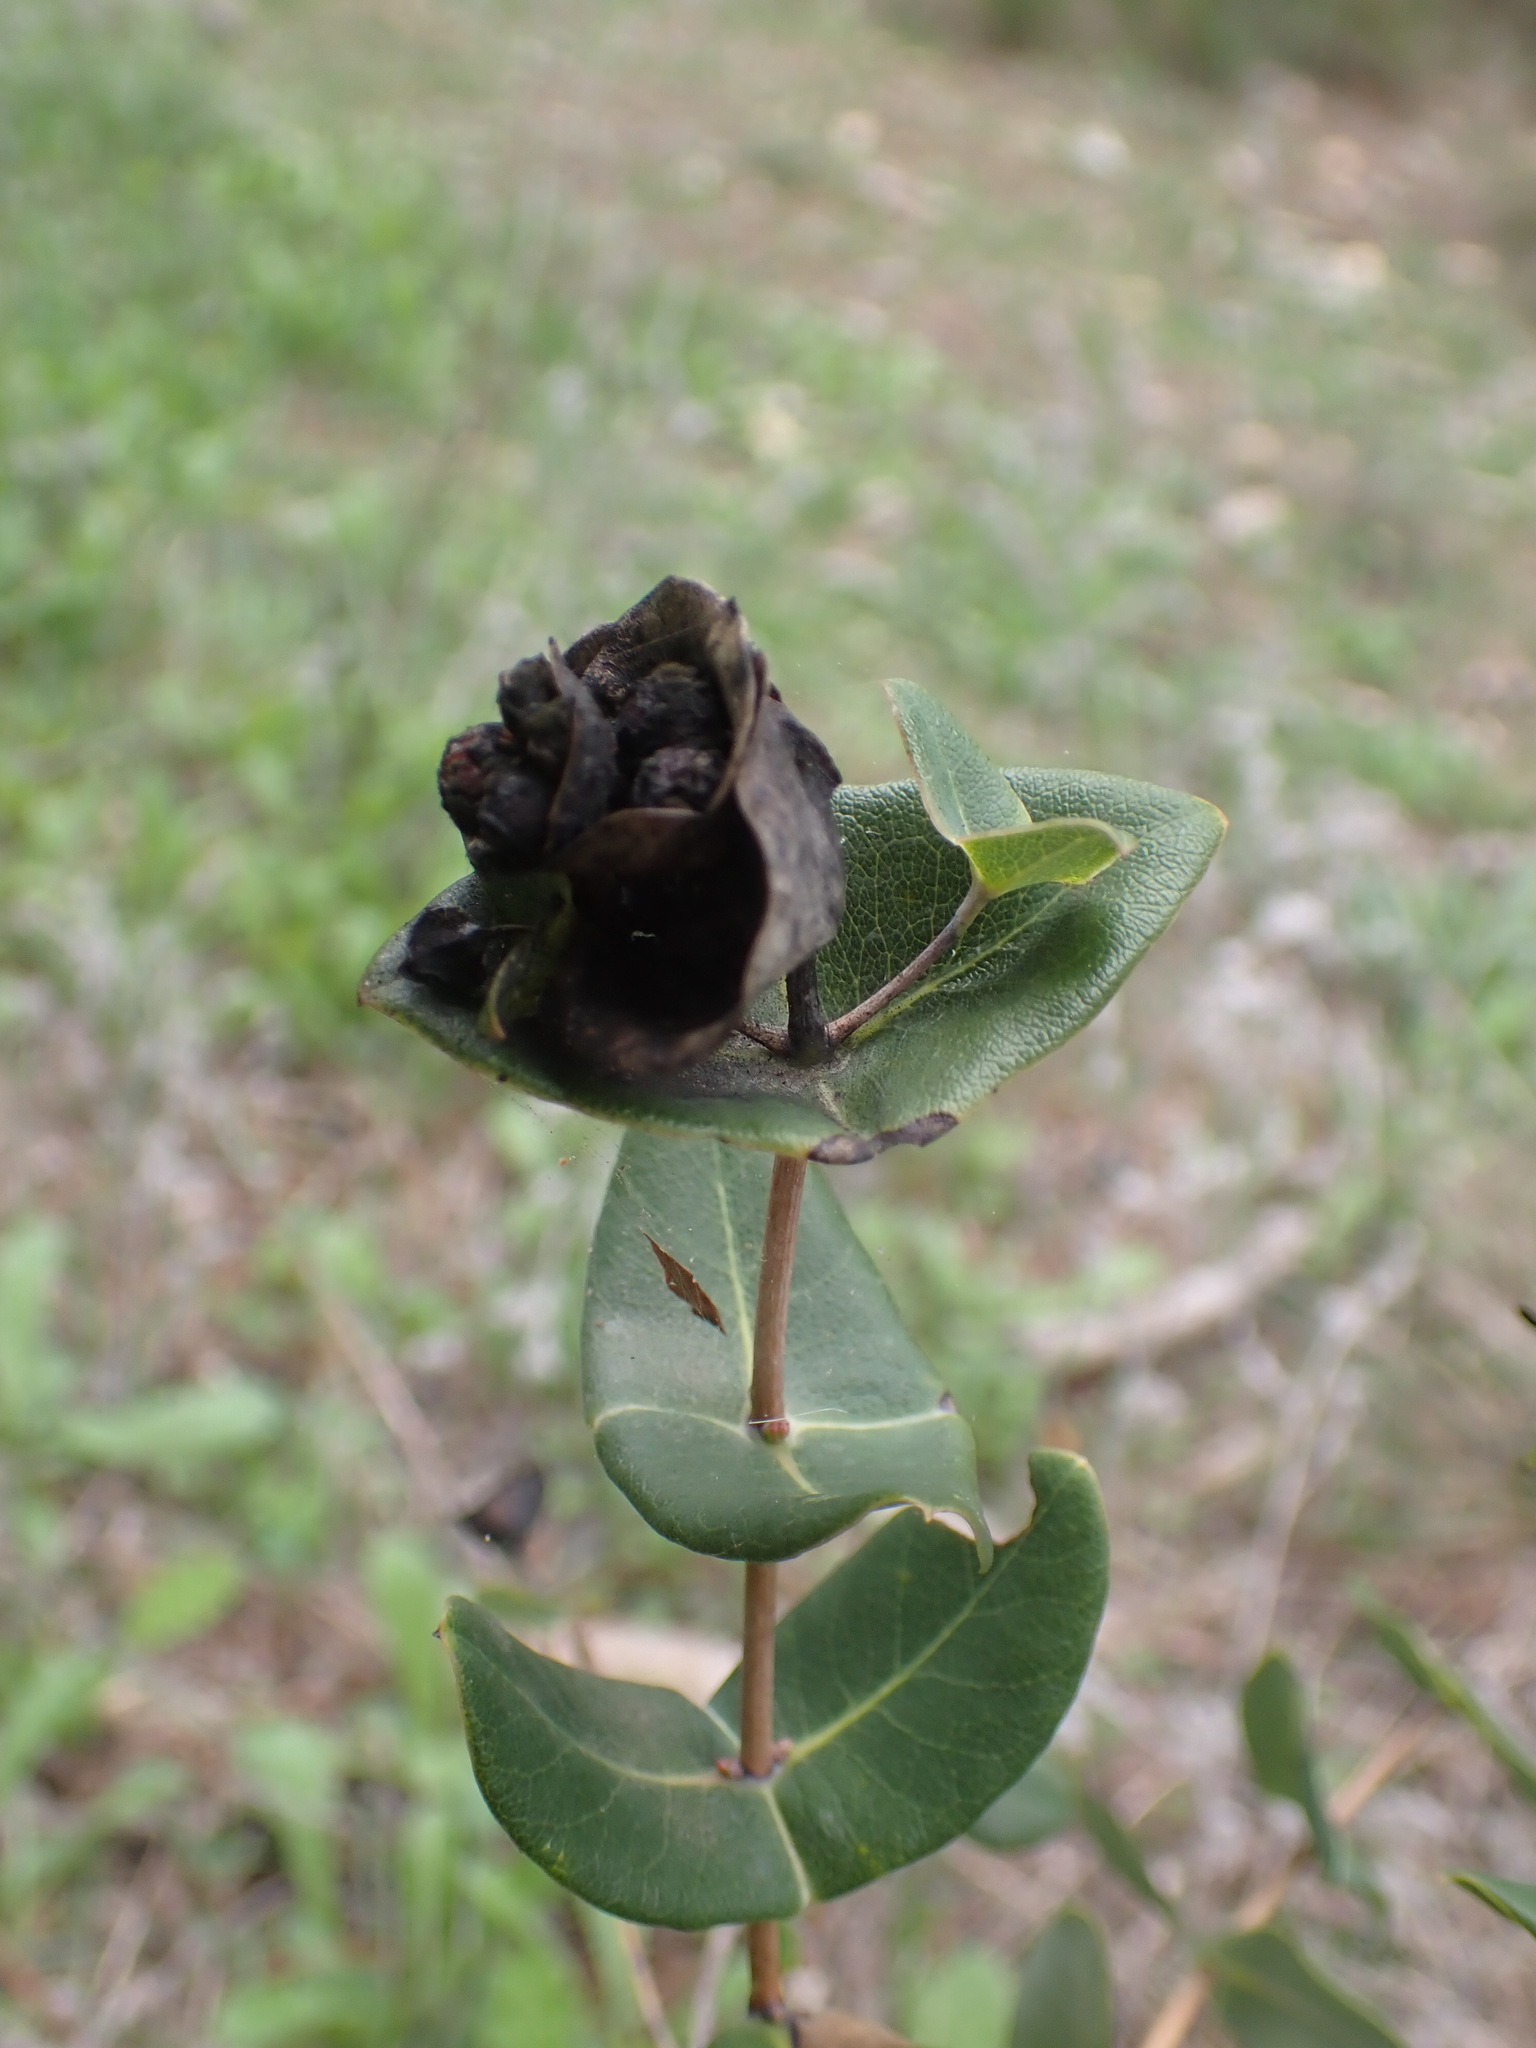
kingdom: Plantae
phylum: Tracheophyta
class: Magnoliopsida
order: Dipsacales
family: Caprifoliaceae
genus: Lonicera
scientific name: Lonicera implexa
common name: Minorca honeysuckle
